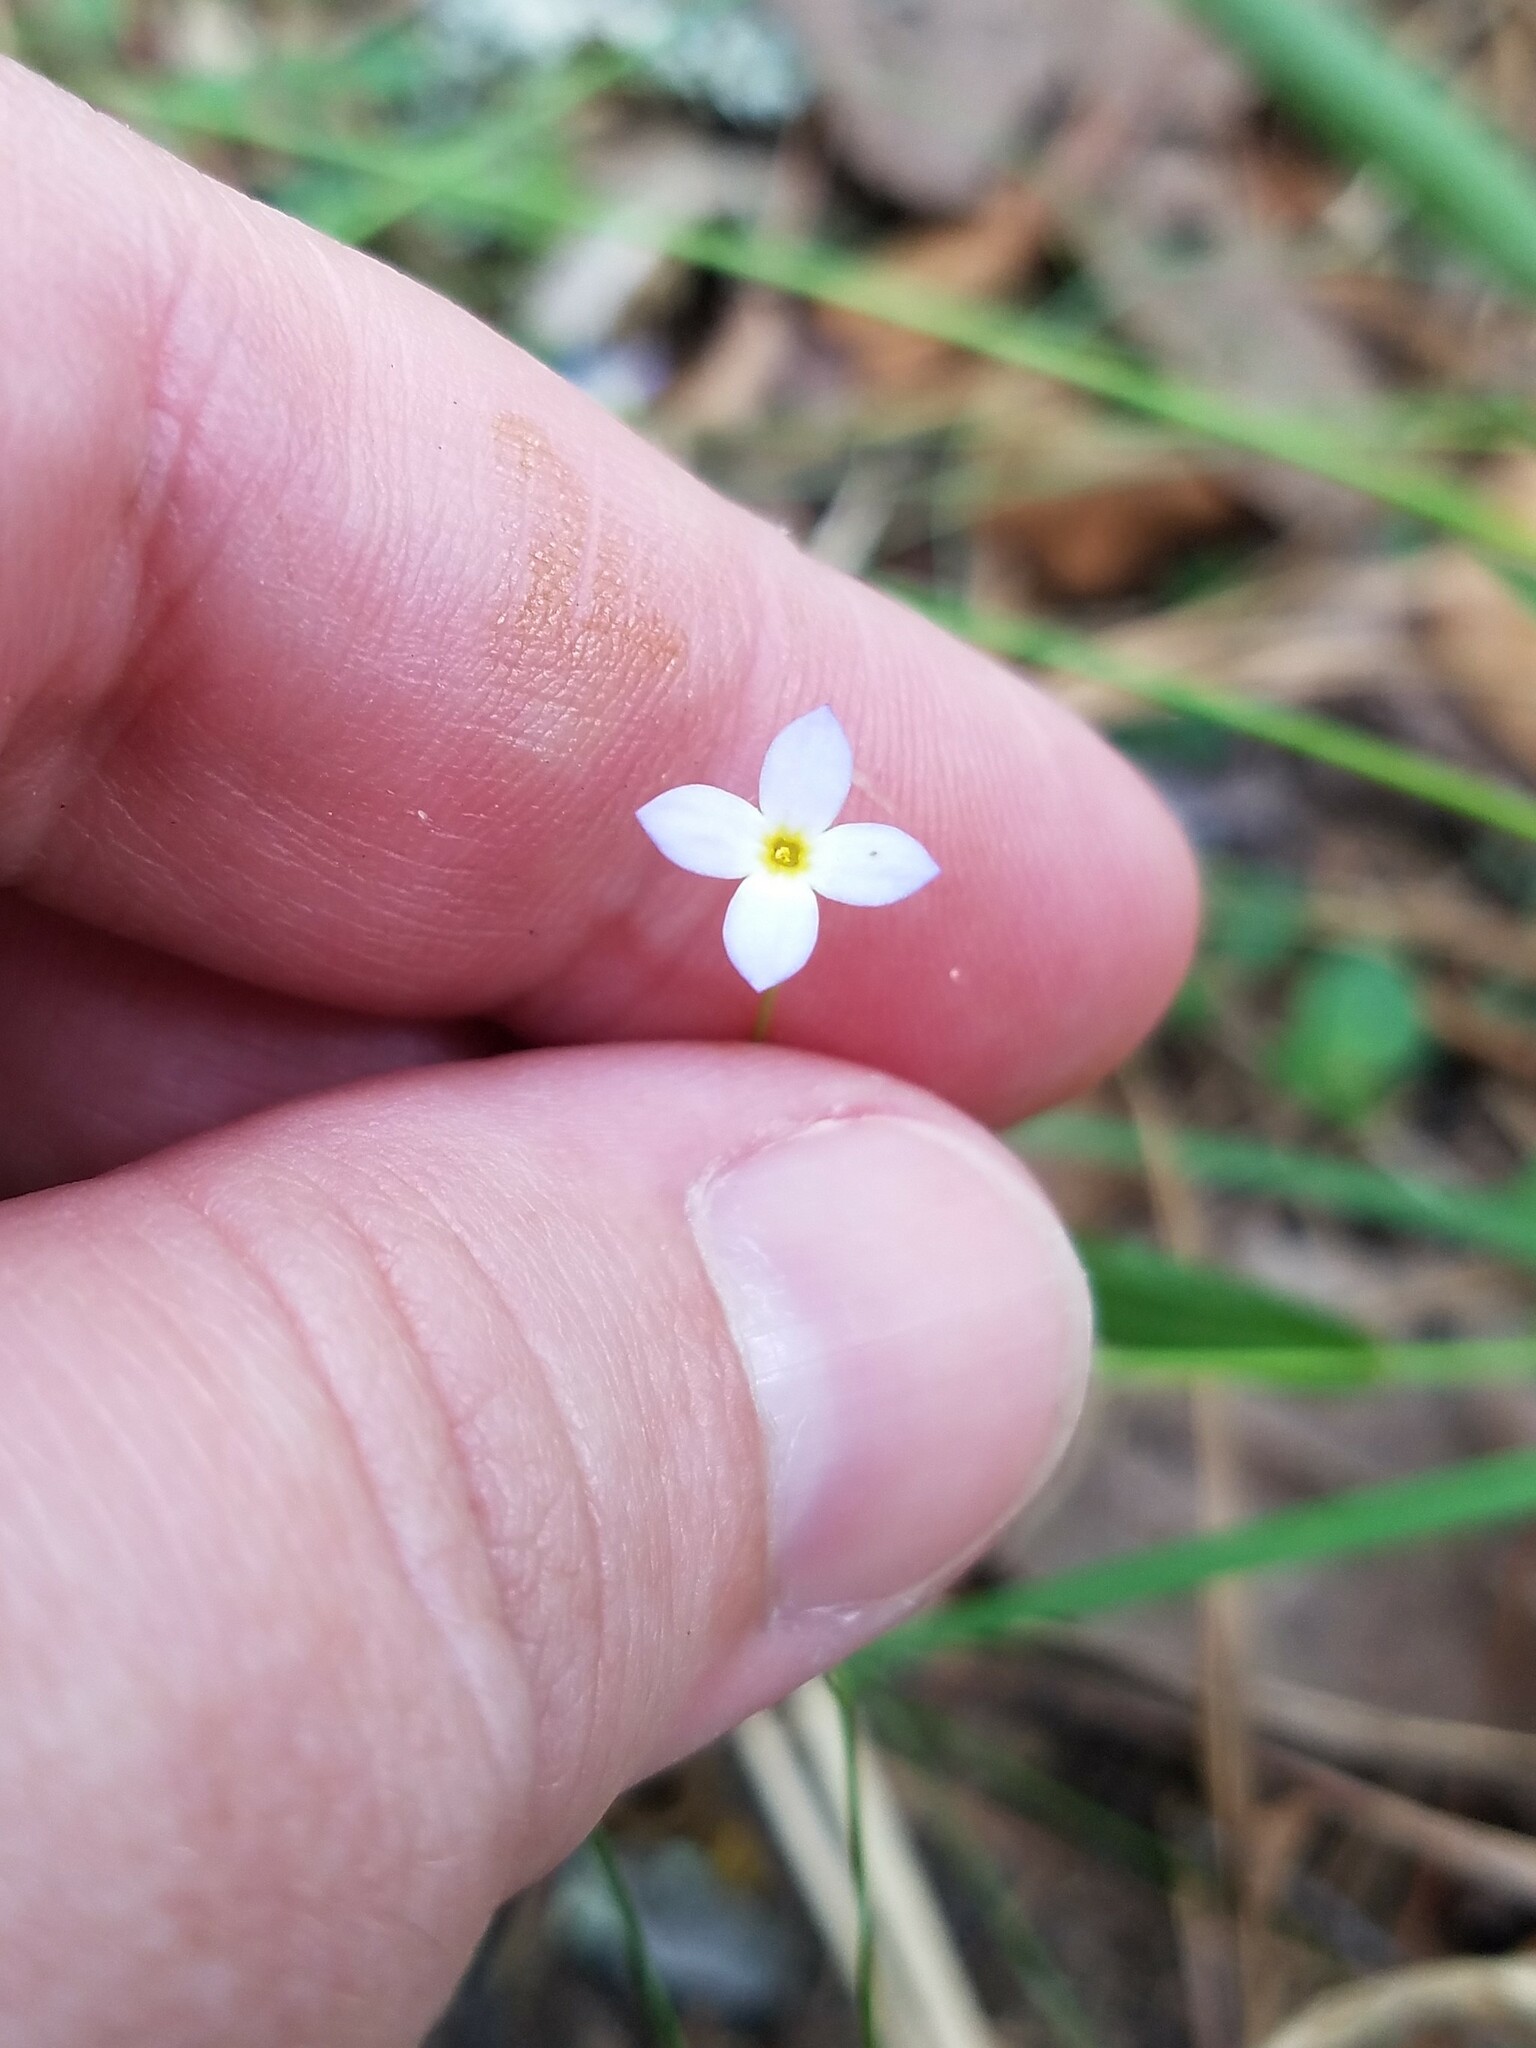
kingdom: Plantae
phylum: Tracheophyta
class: Magnoliopsida
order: Gentianales
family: Rubiaceae
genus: Houstonia
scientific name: Houstonia caerulea
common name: Bluets
